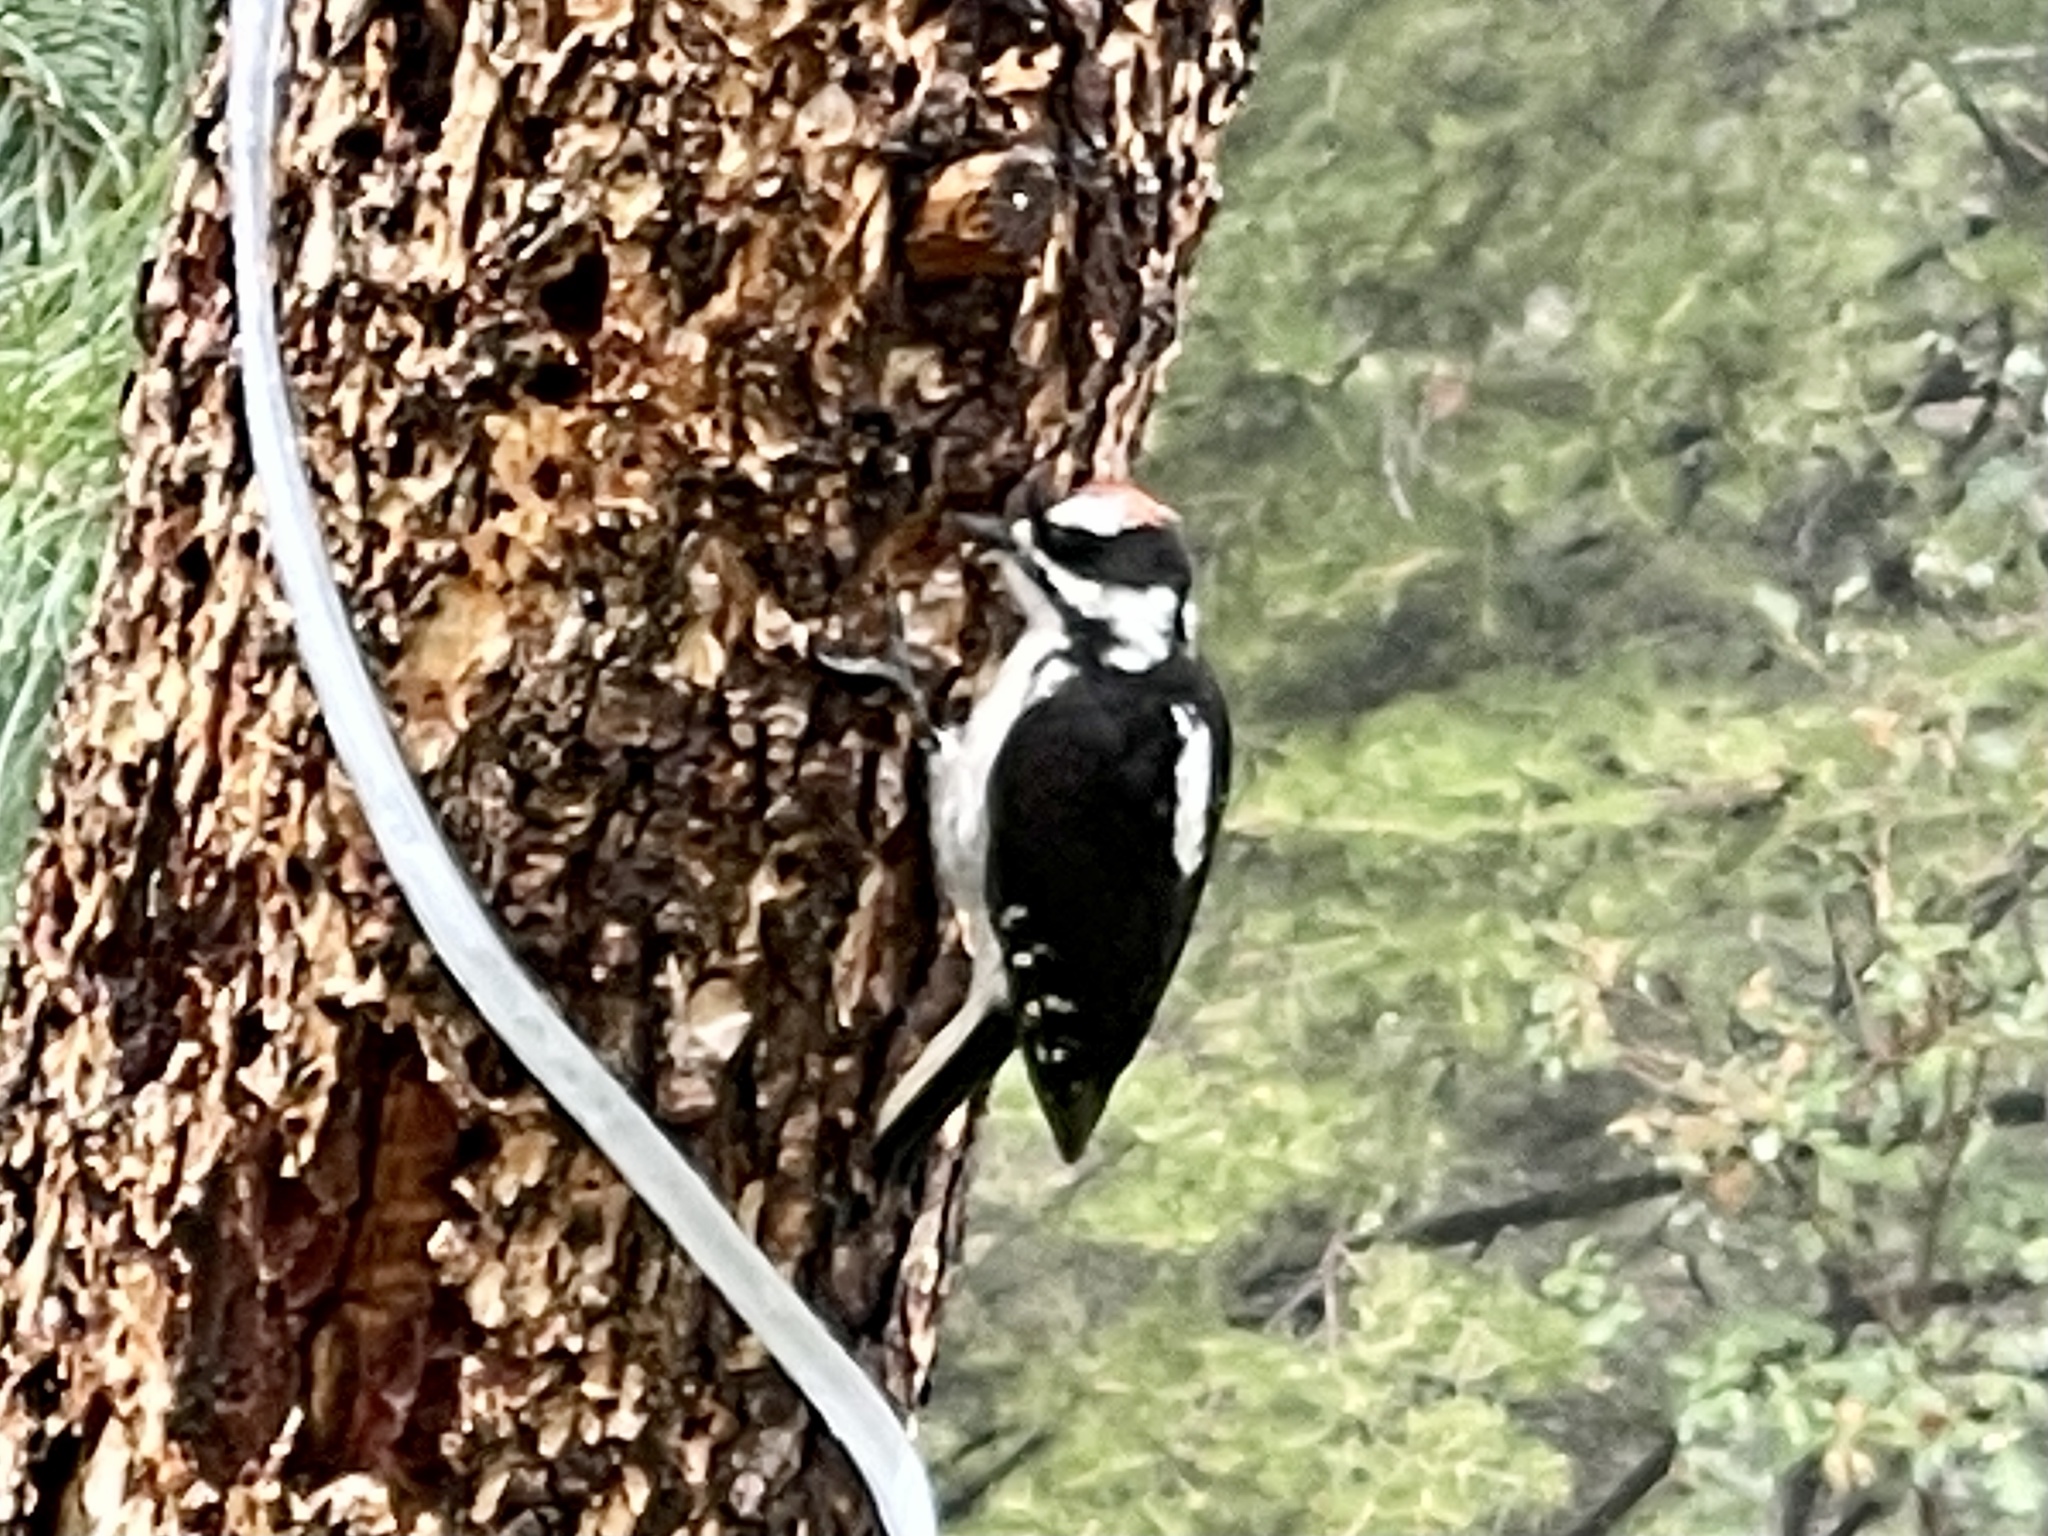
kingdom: Animalia
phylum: Chordata
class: Aves
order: Piciformes
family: Picidae
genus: Leuconotopicus
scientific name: Leuconotopicus villosus
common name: Hairy woodpecker
